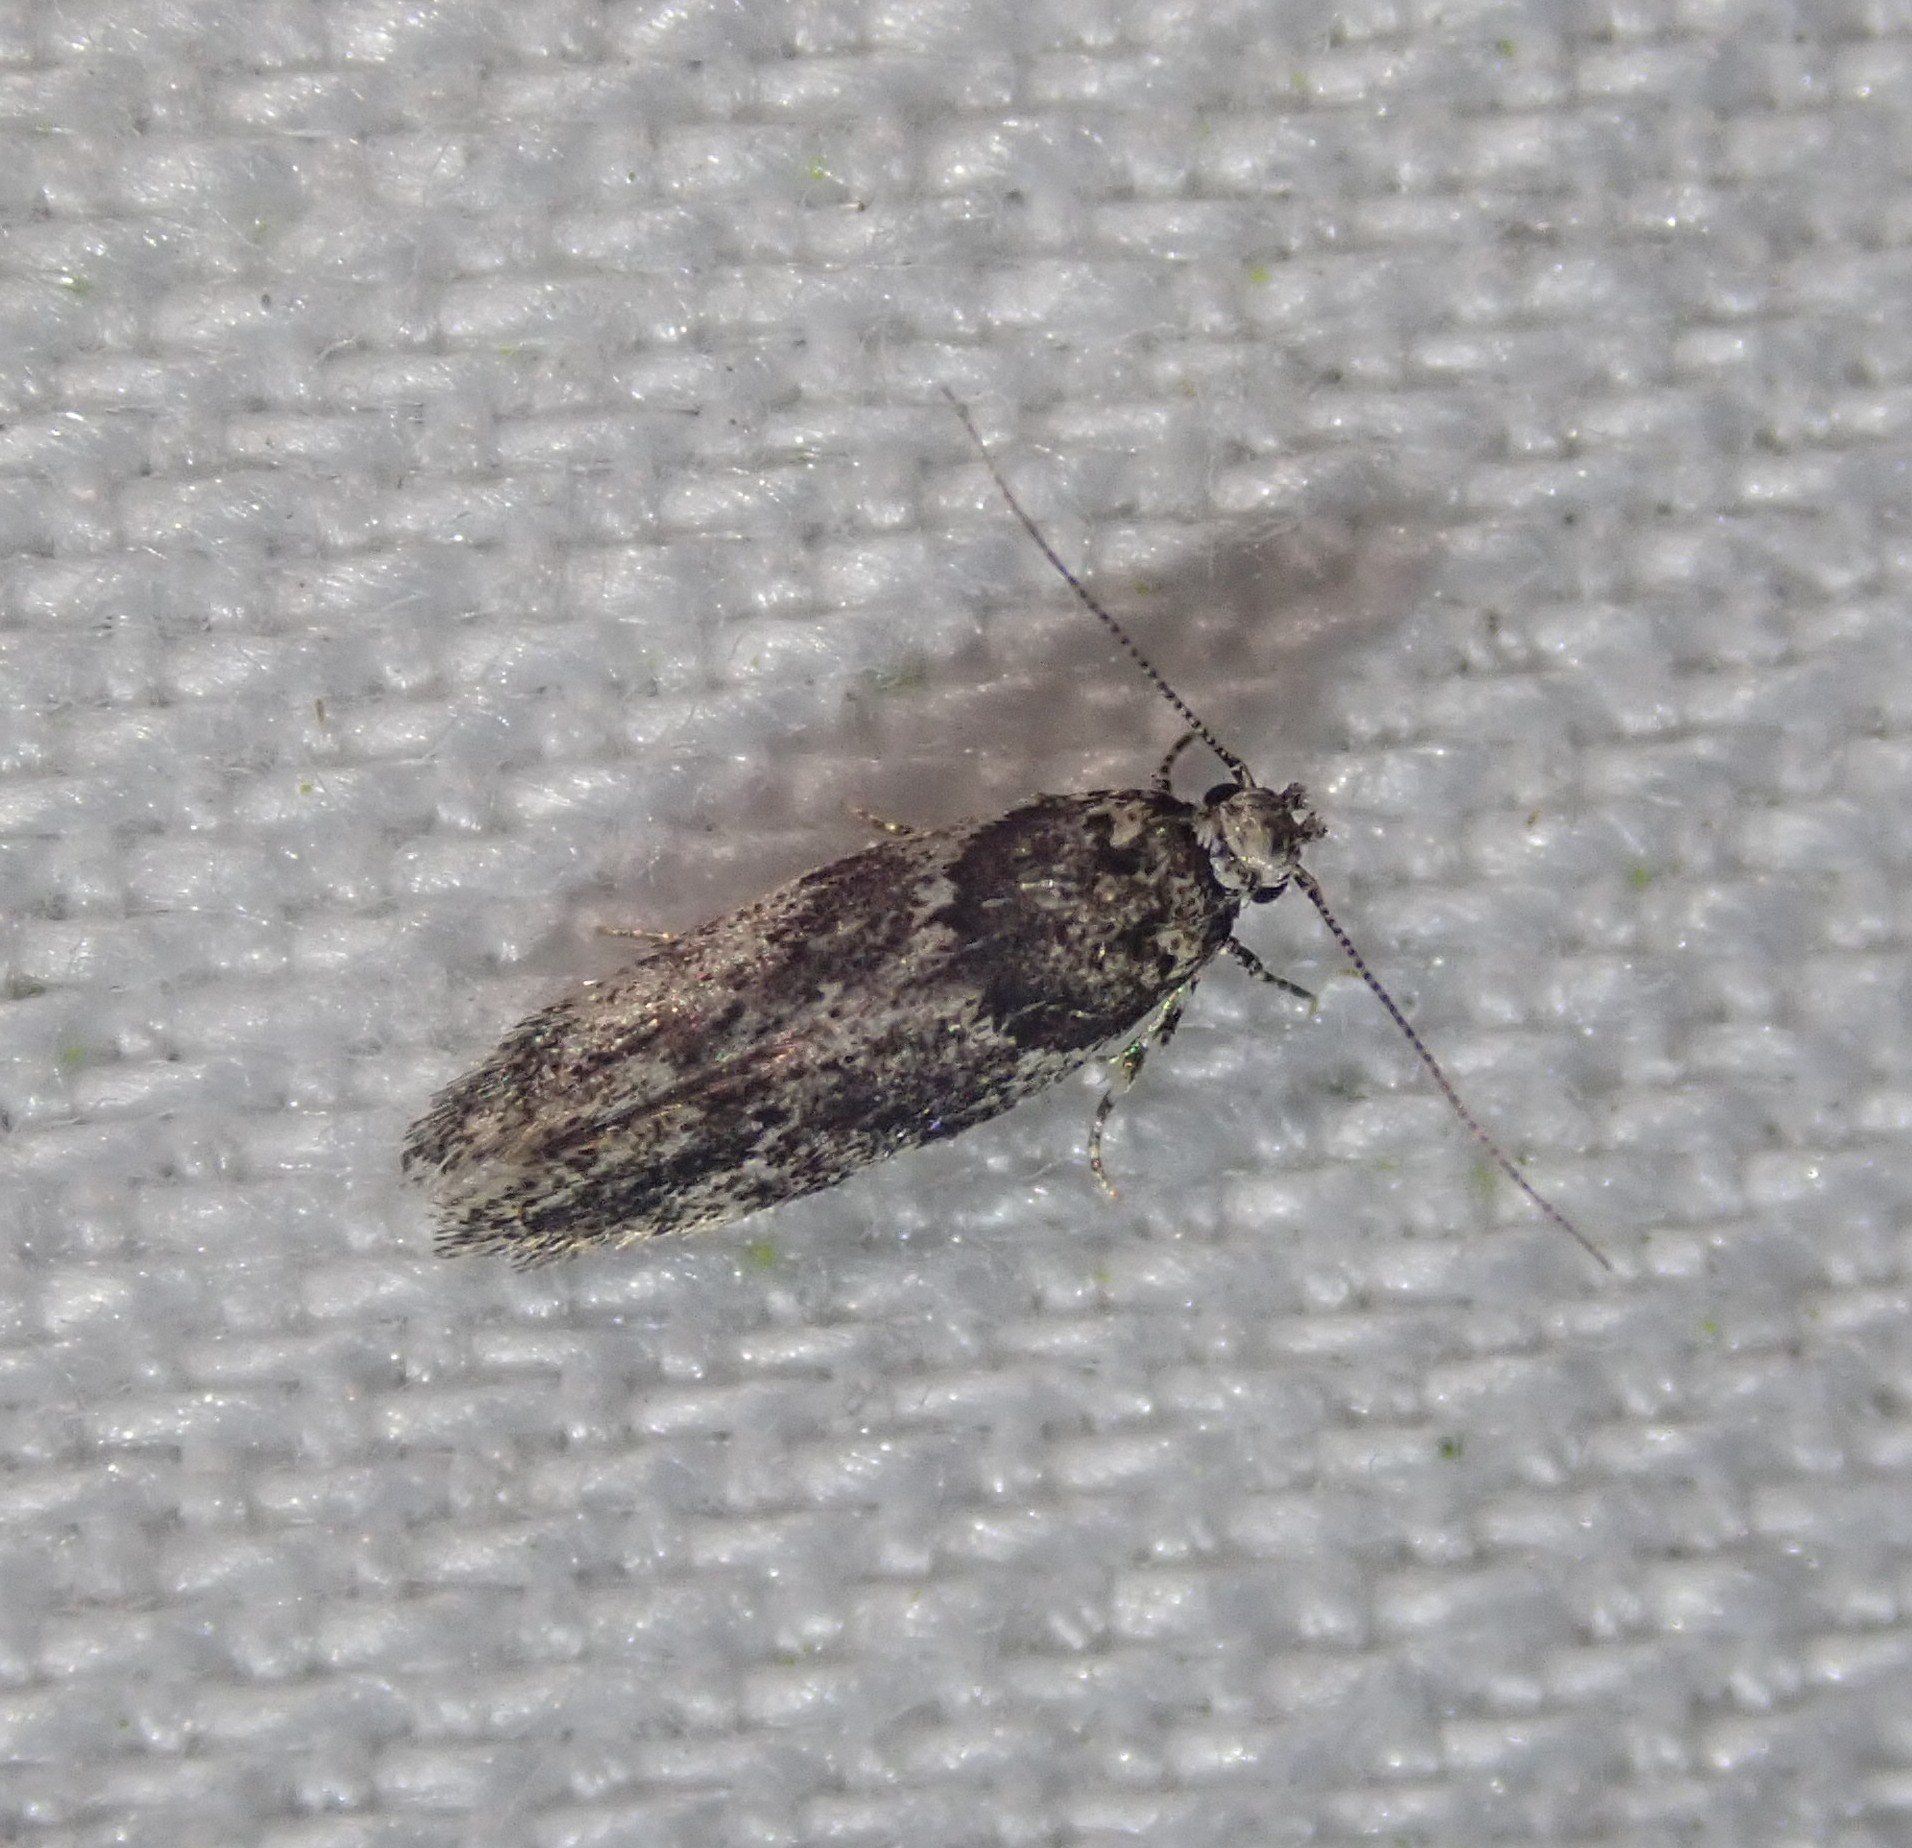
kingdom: Animalia
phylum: Arthropoda
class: Insecta
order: Lepidoptera
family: Gelechiidae
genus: Recurvaria
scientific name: Recurvaria nanella
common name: Gelechiid moth
